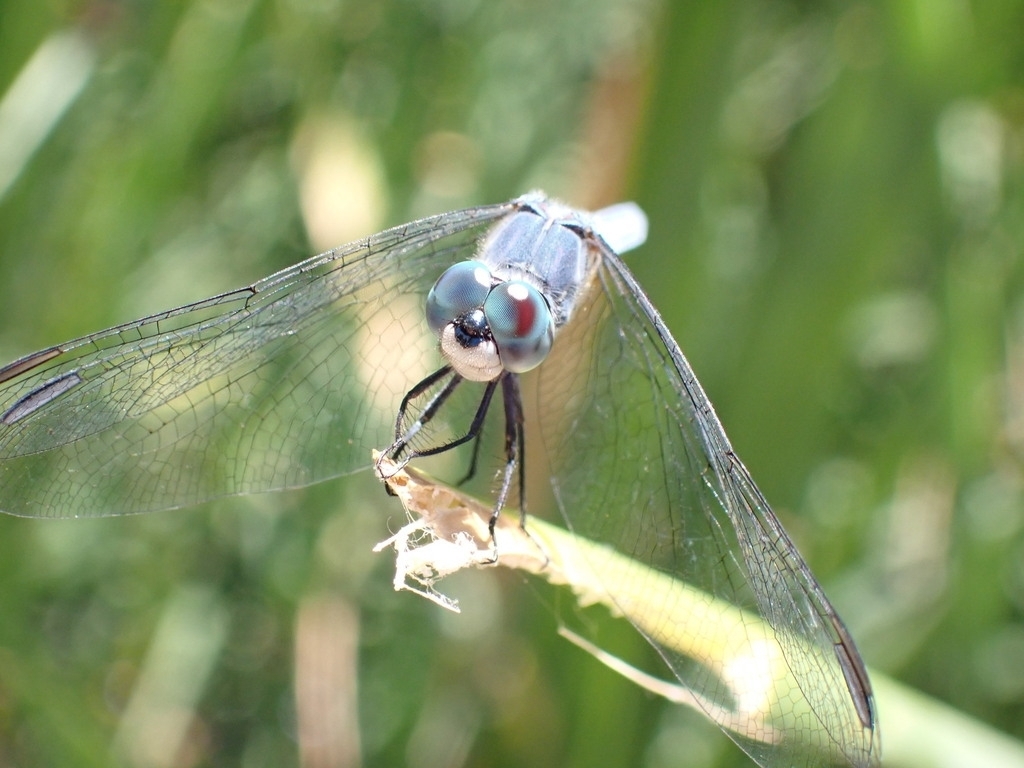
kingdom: Animalia
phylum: Arthropoda
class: Insecta
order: Odonata
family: Libellulidae
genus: Pachydiplax
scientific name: Pachydiplax longipennis
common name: Blue dasher
